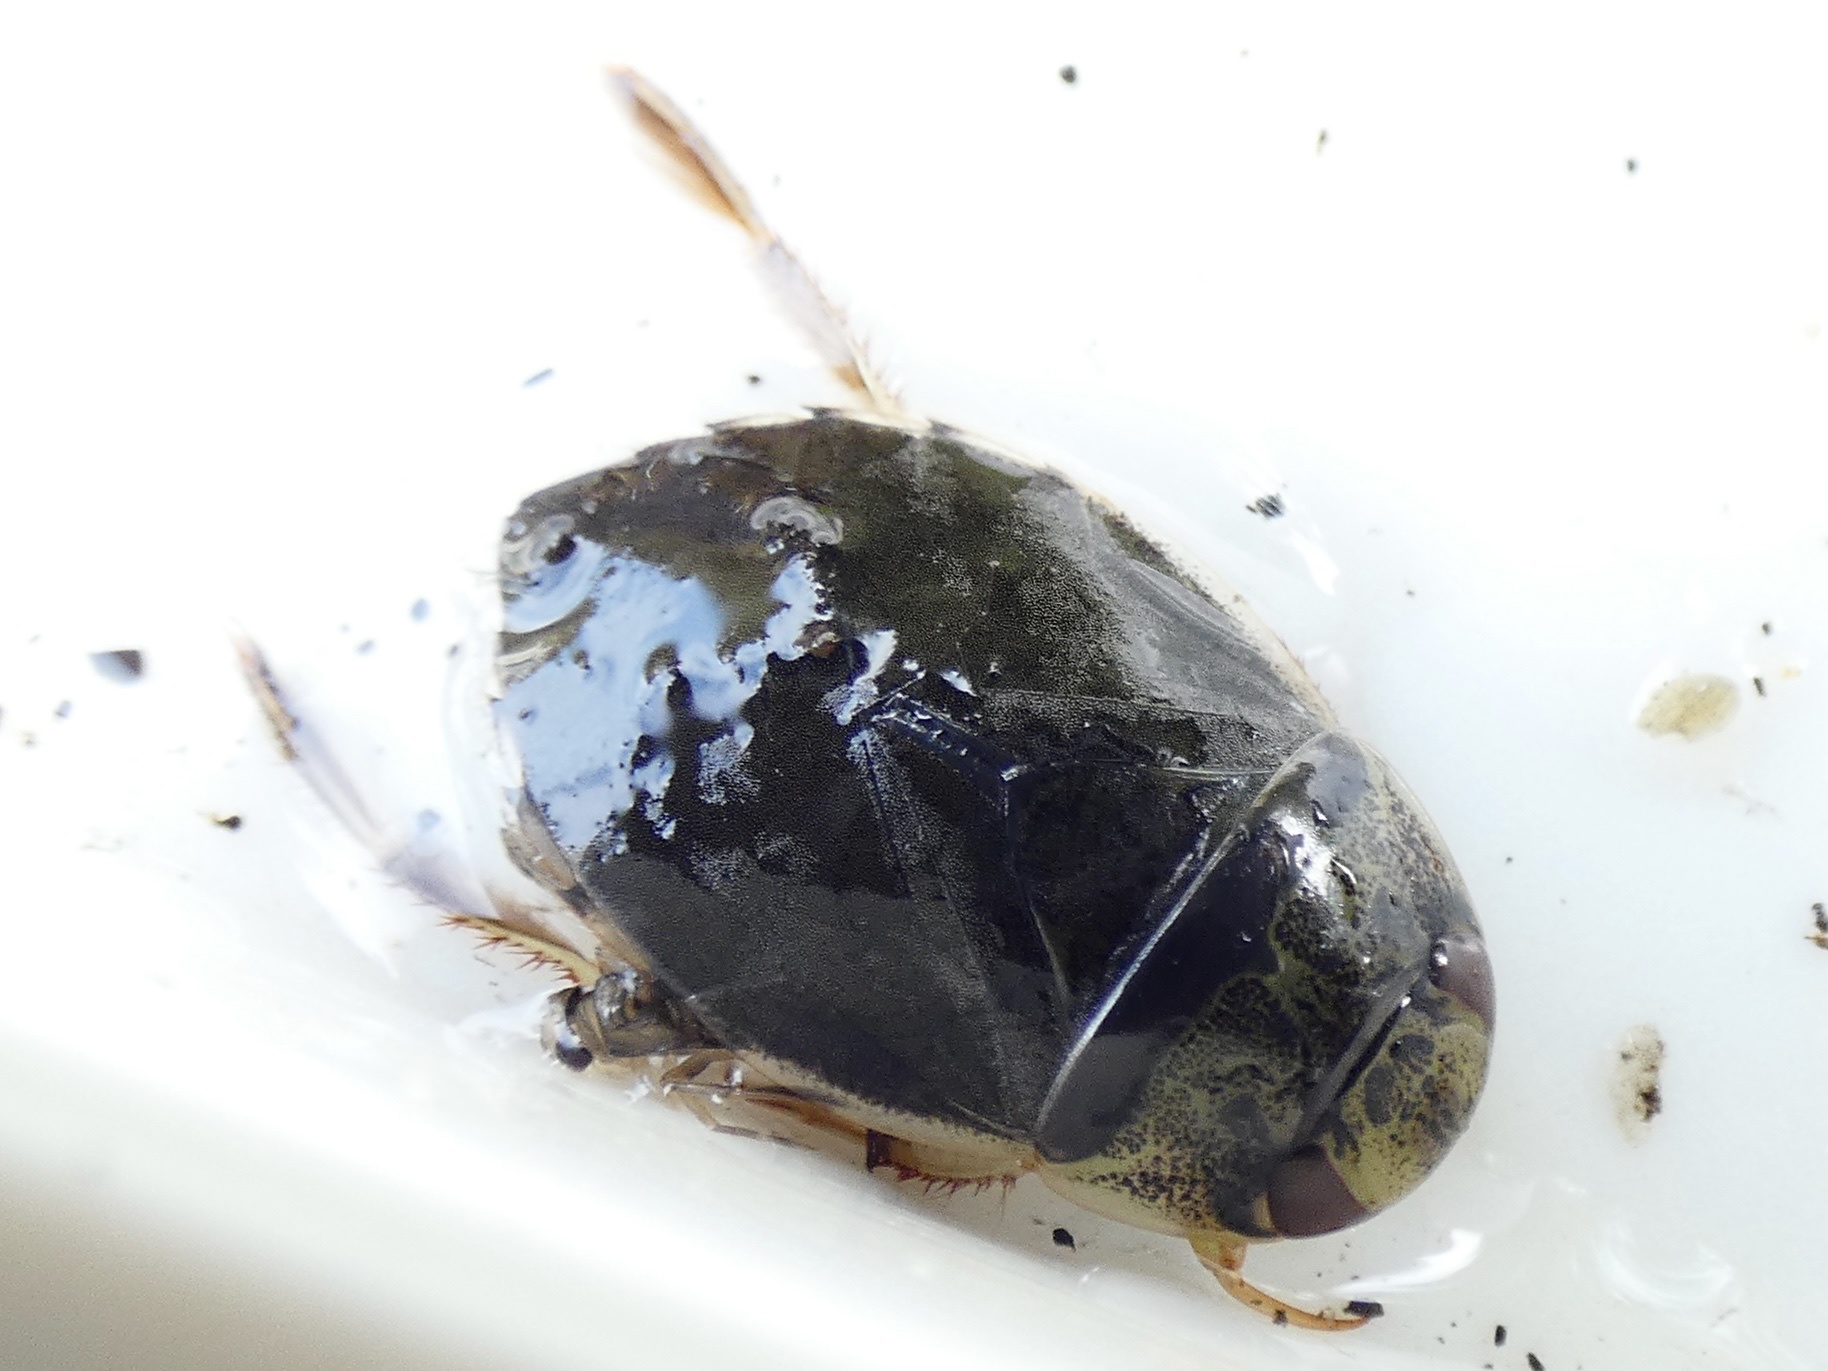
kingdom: Animalia
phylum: Arthropoda
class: Insecta
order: Hemiptera
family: Naucoridae
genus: Ilyocoris
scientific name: Ilyocoris cimicoides
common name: Saucer bugs
